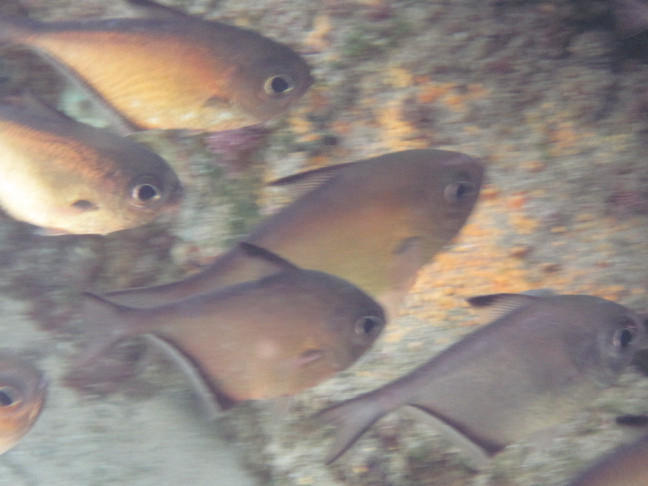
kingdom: Animalia
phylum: Chordata
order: Perciformes
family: Pempheridae
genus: Pempheris
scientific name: Pempheris schwenkii
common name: Silver bullseye
